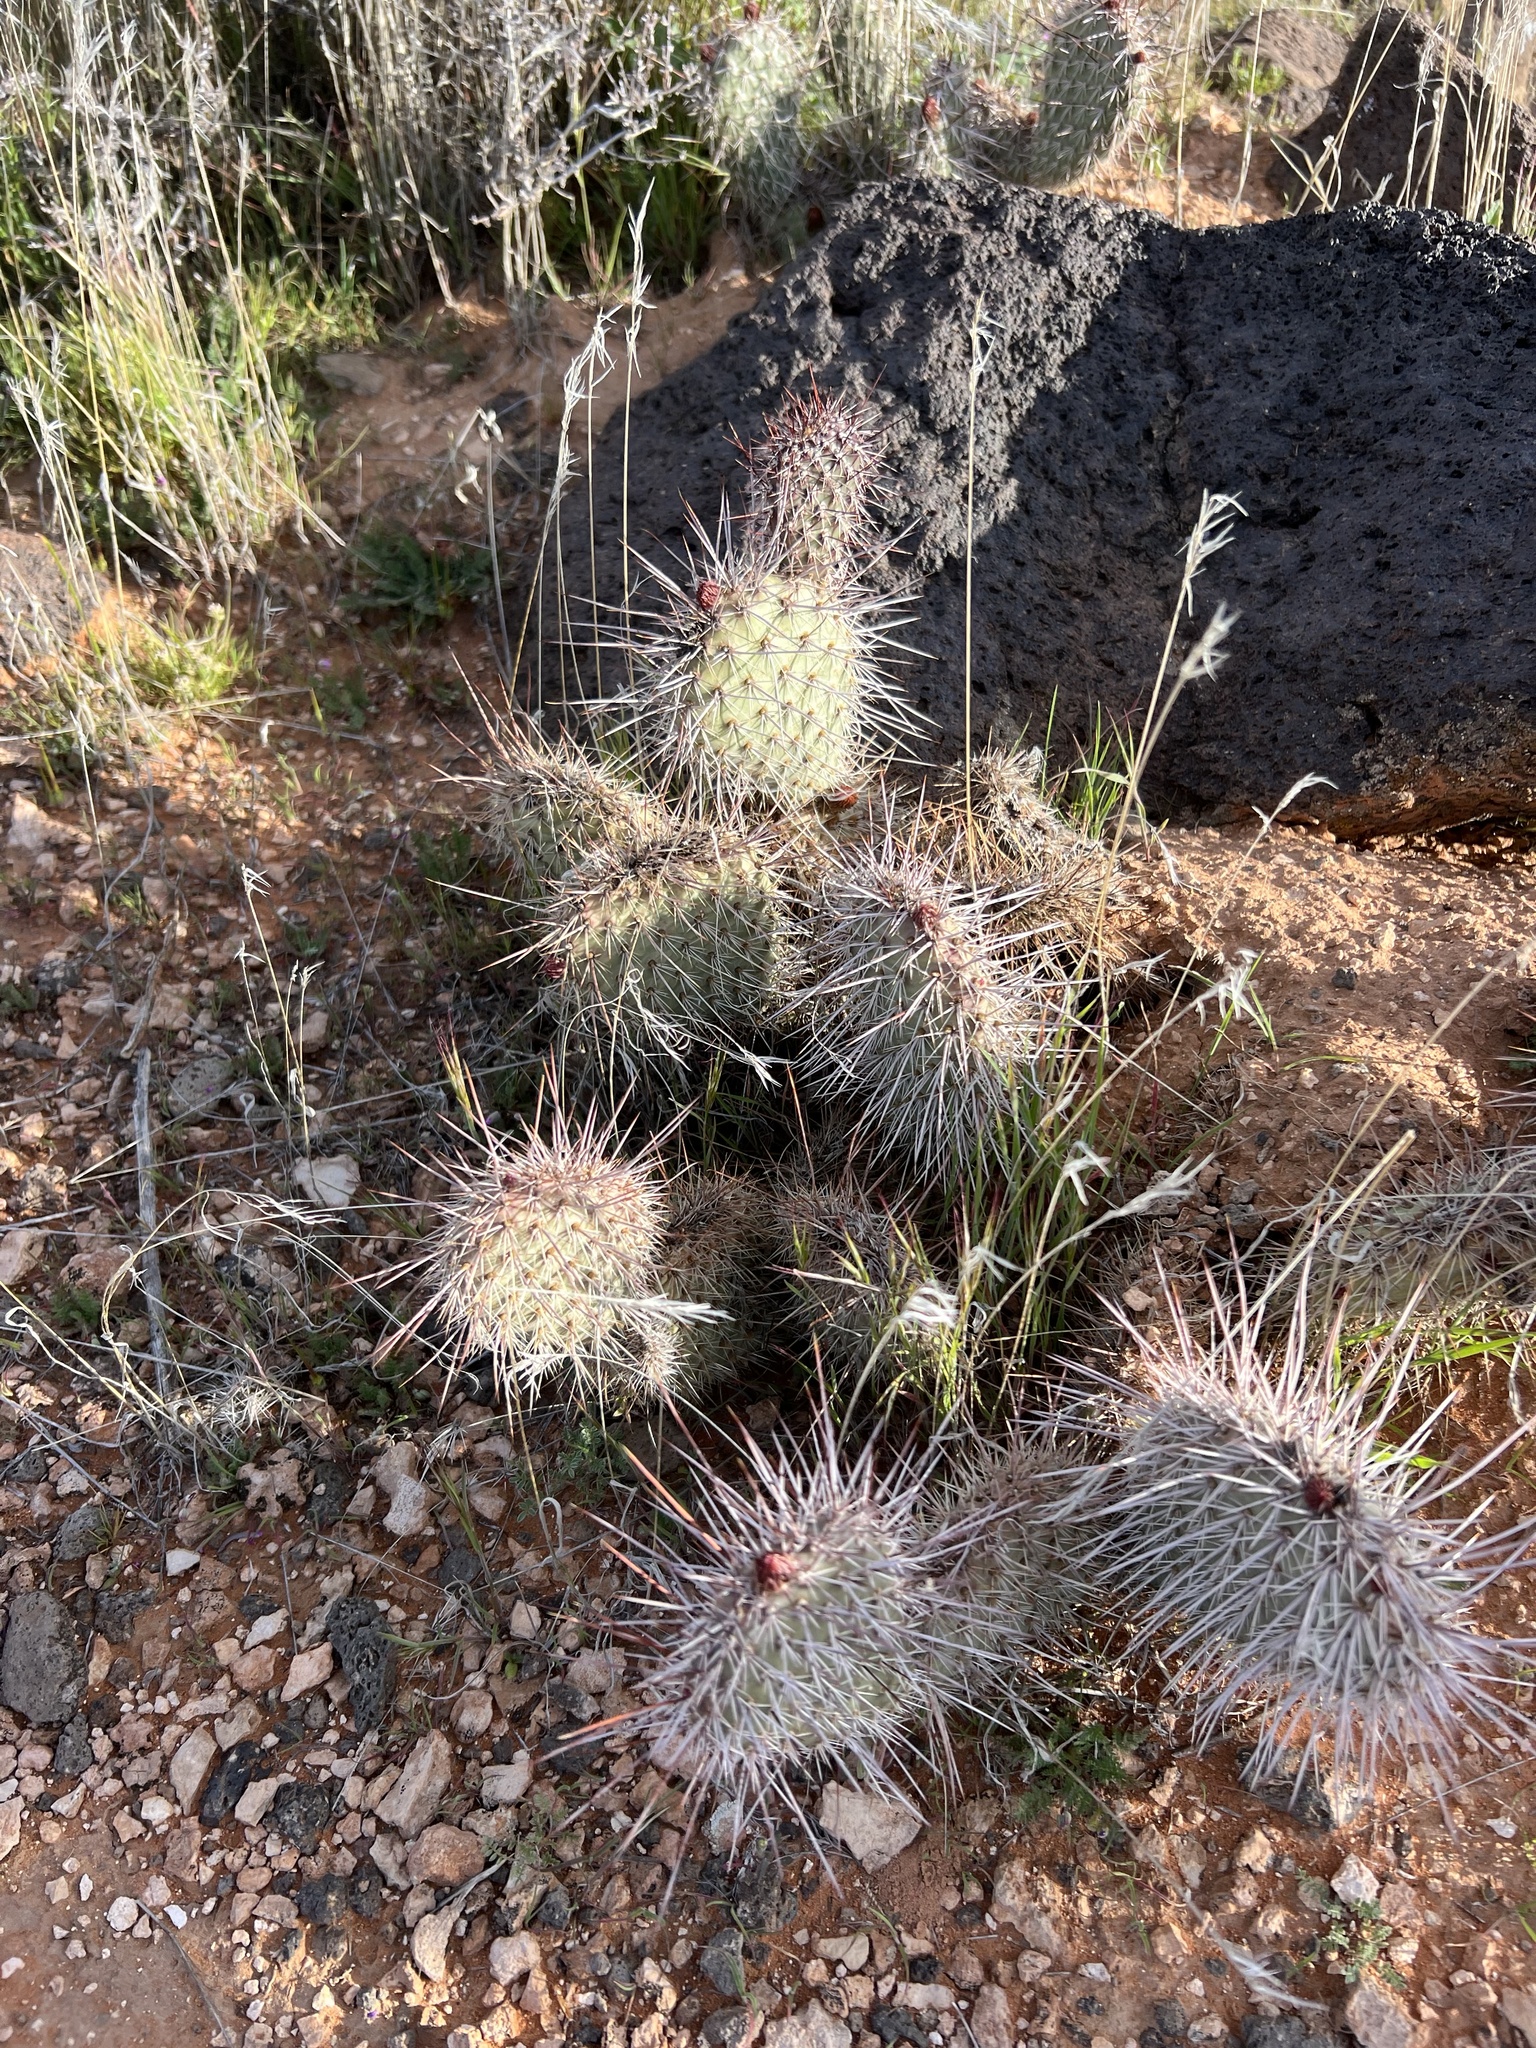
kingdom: Plantae
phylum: Tracheophyta
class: Magnoliopsida
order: Caryophyllales
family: Cactaceae
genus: Opuntia
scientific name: Opuntia polyacantha
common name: Plains prickly-pear
